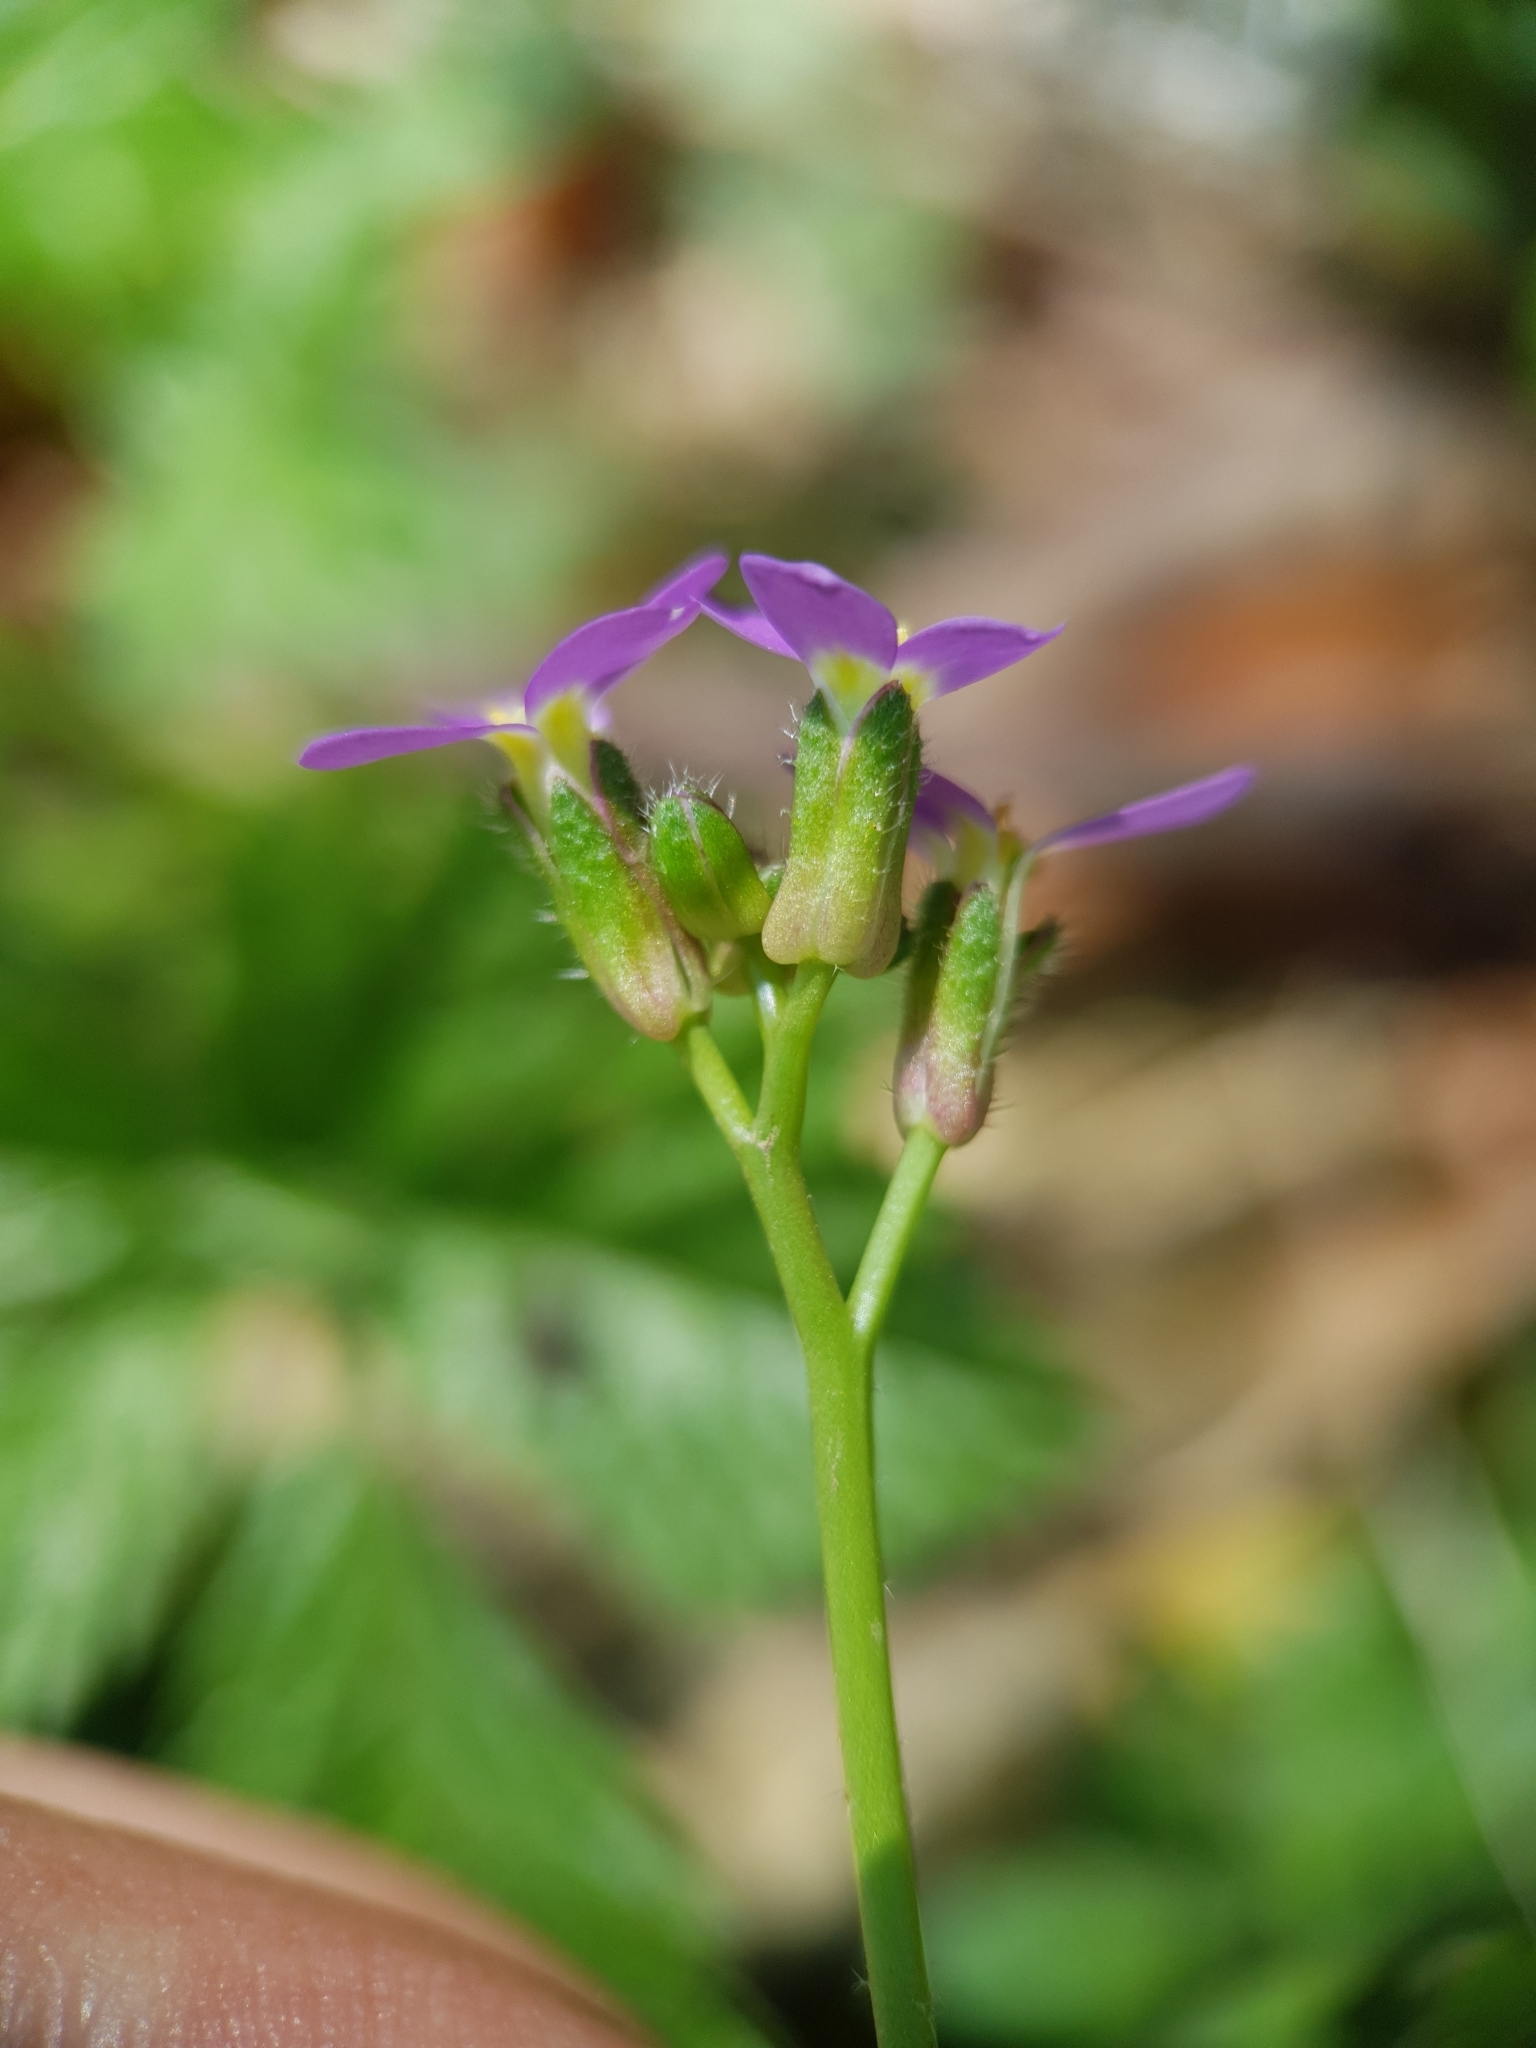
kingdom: Plantae
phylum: Tracheophyta
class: Magnoliopsida
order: Brassicales
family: Brassicaceae
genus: Arabis
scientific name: Arabis verna
